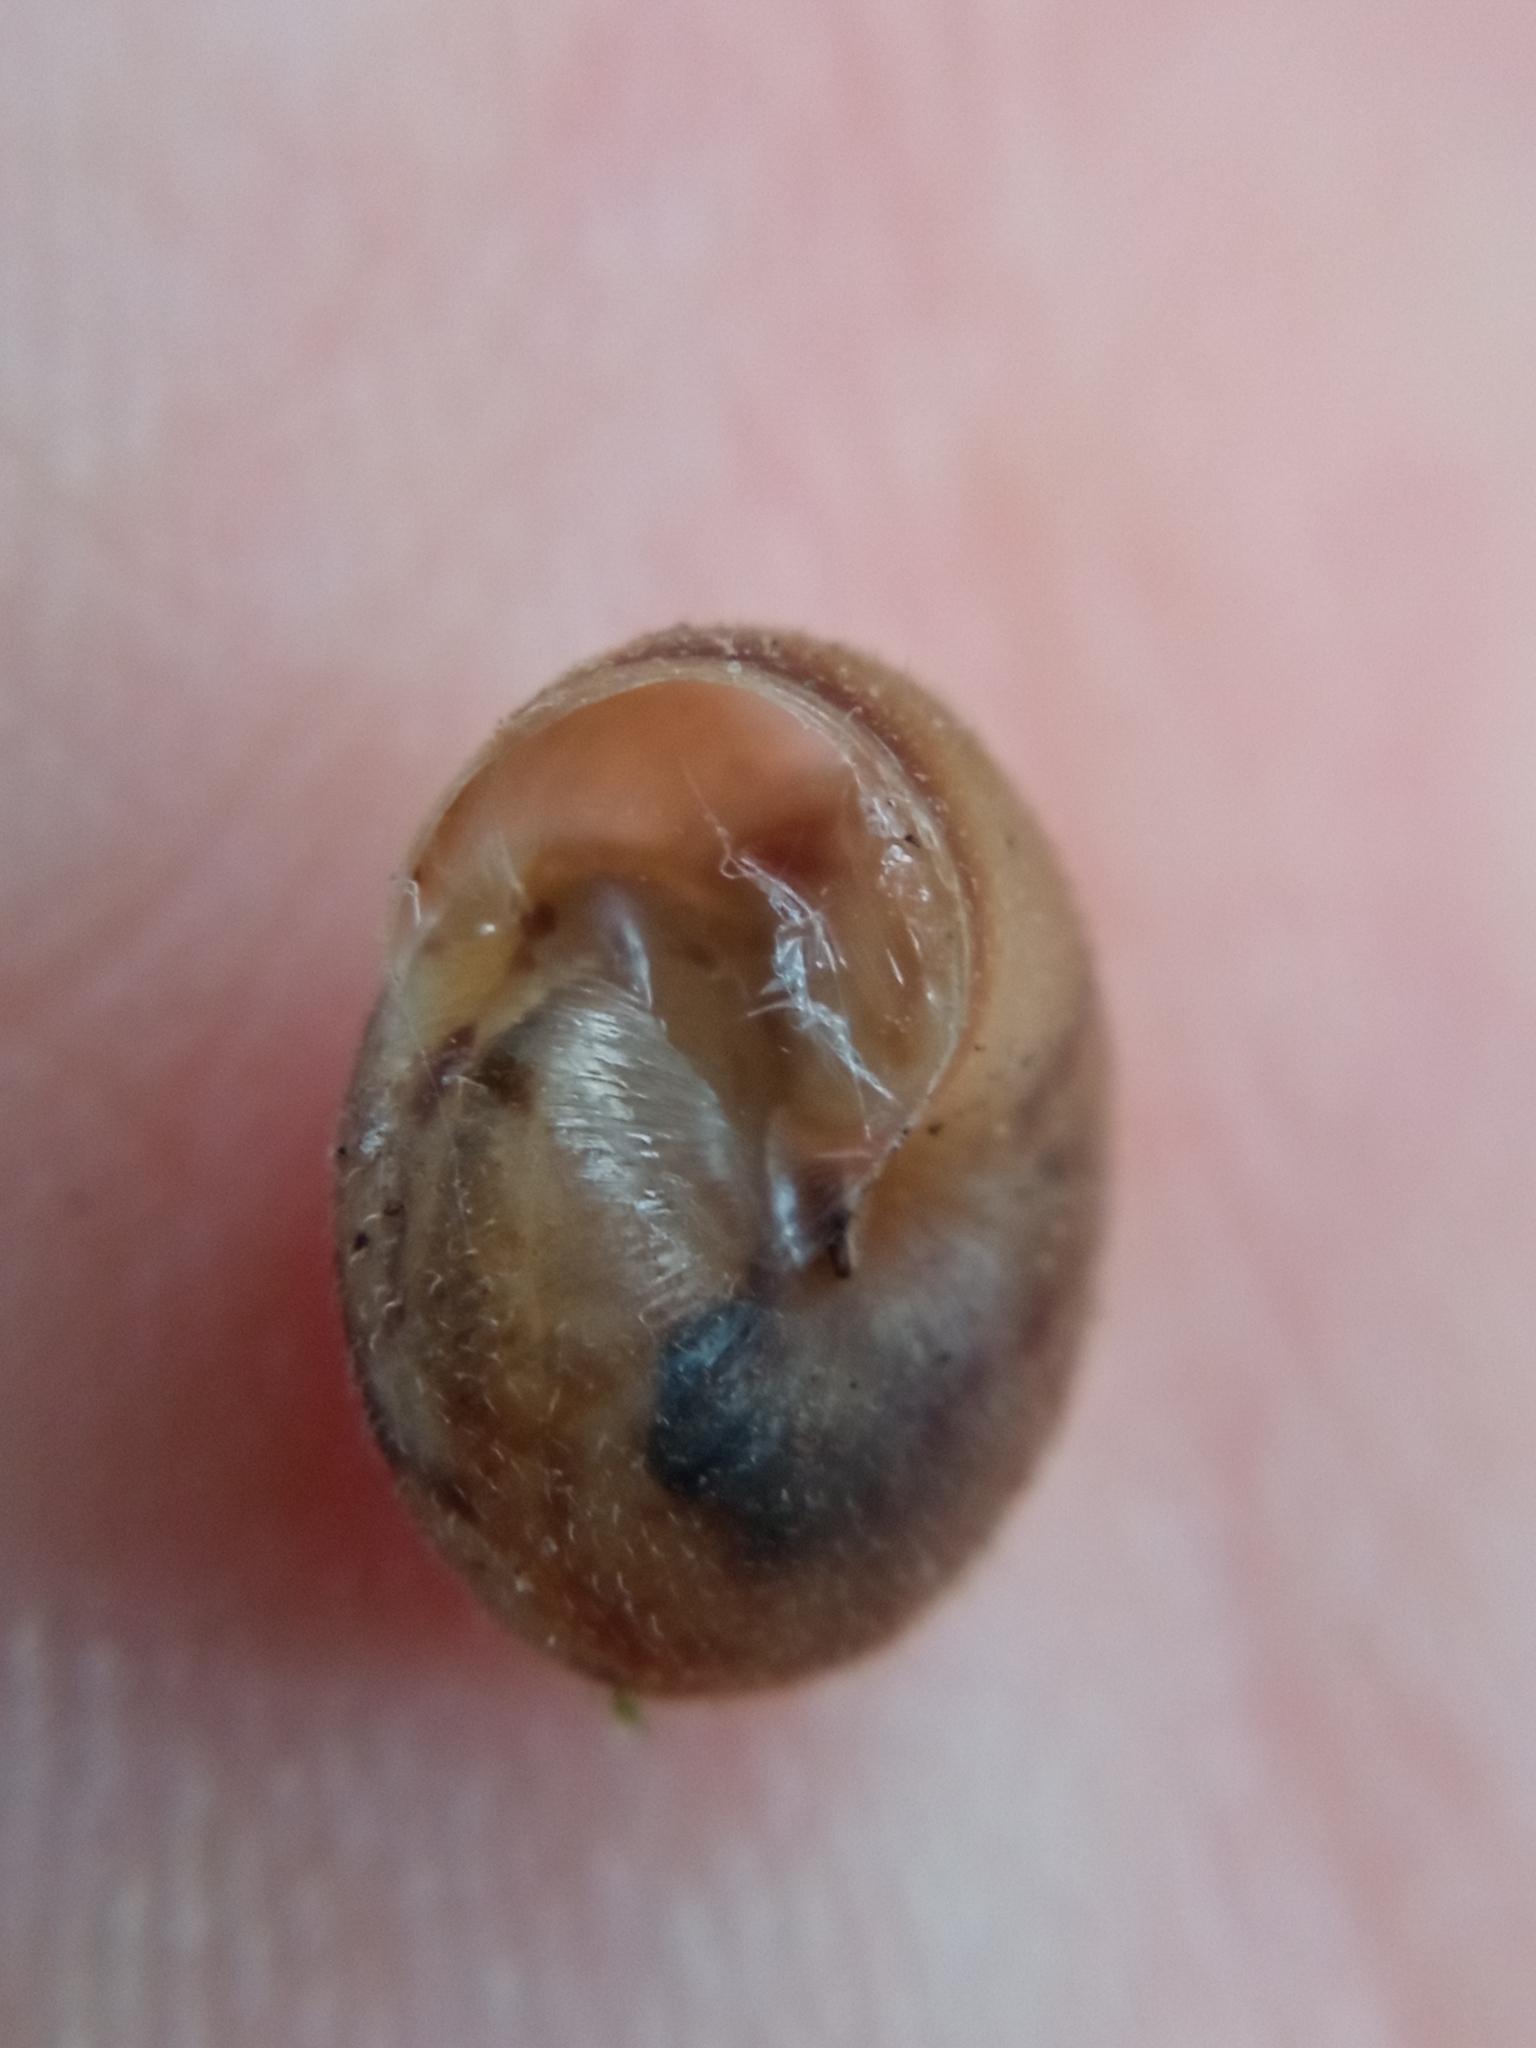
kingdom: Animalia
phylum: Mollusca
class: Gastropoda
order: Stylommatophora
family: Hygromiidae
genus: Trochulus
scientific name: Trochulus hispidus
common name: Hairy snail
